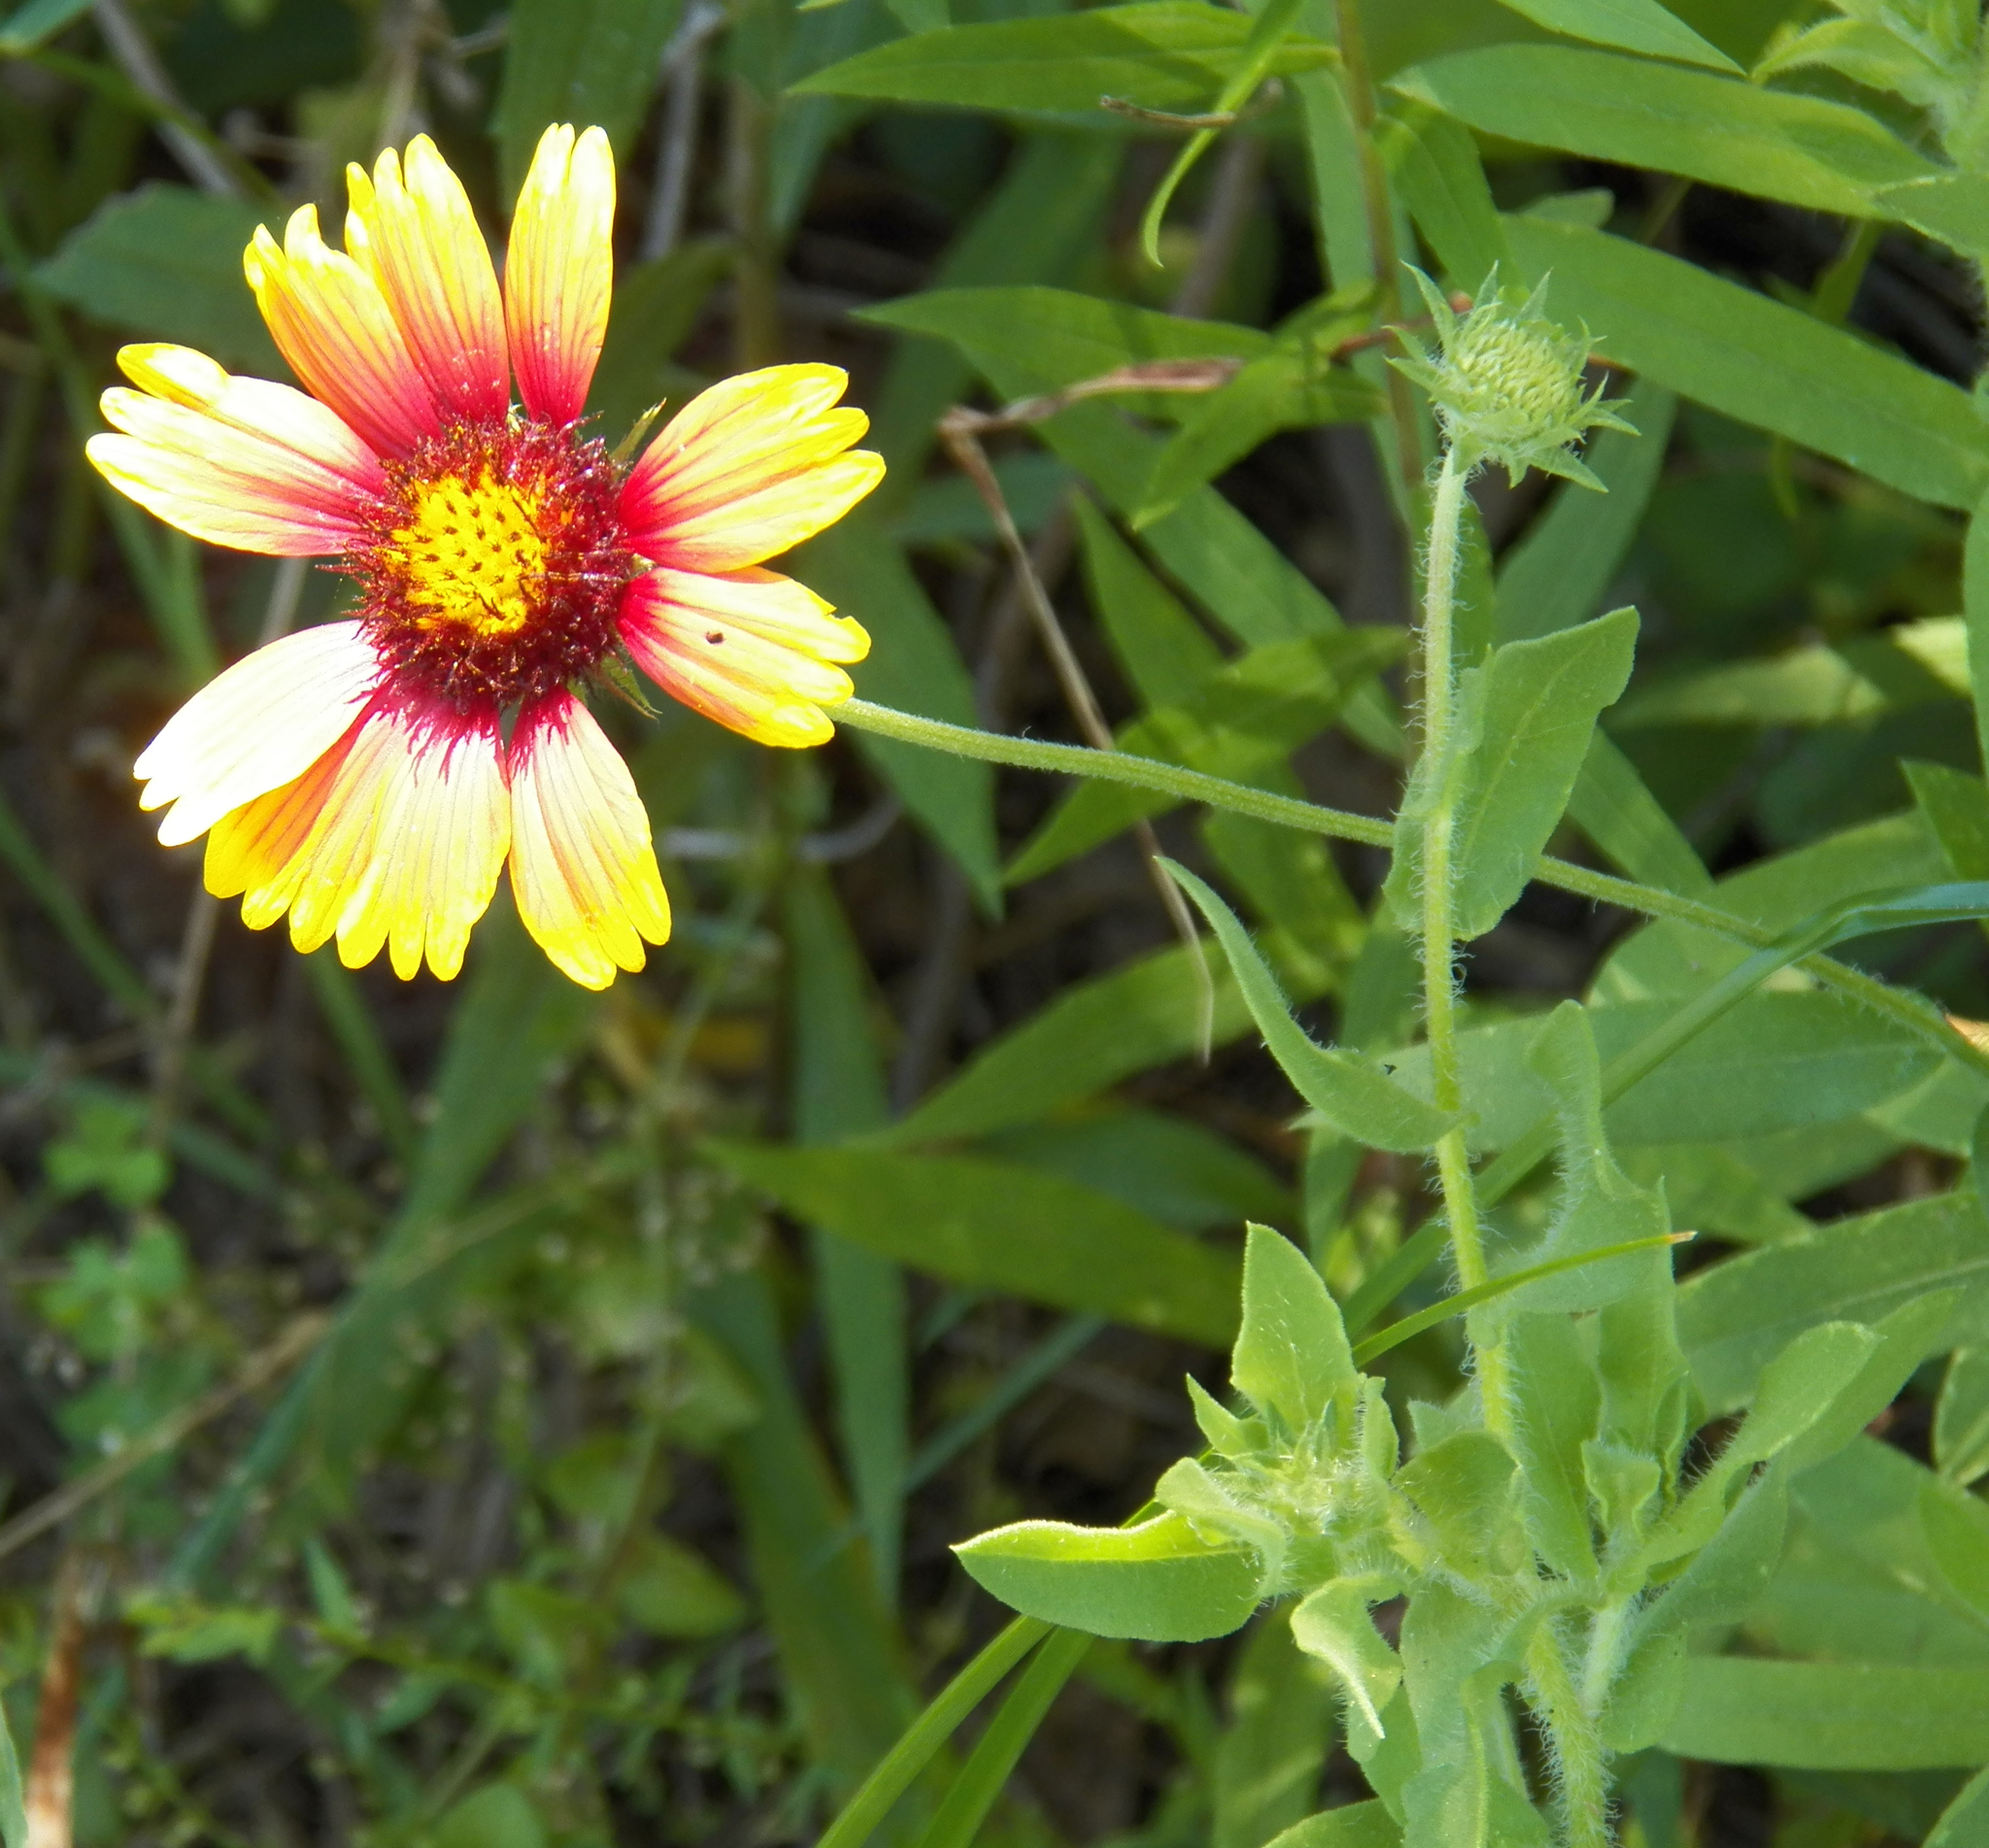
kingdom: Plantae
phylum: Tracheophyta
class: Magnoliopsida
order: Asterales
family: Asteraceae
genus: Gaillardia
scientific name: Gaillardia pulchella
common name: Firewheel
